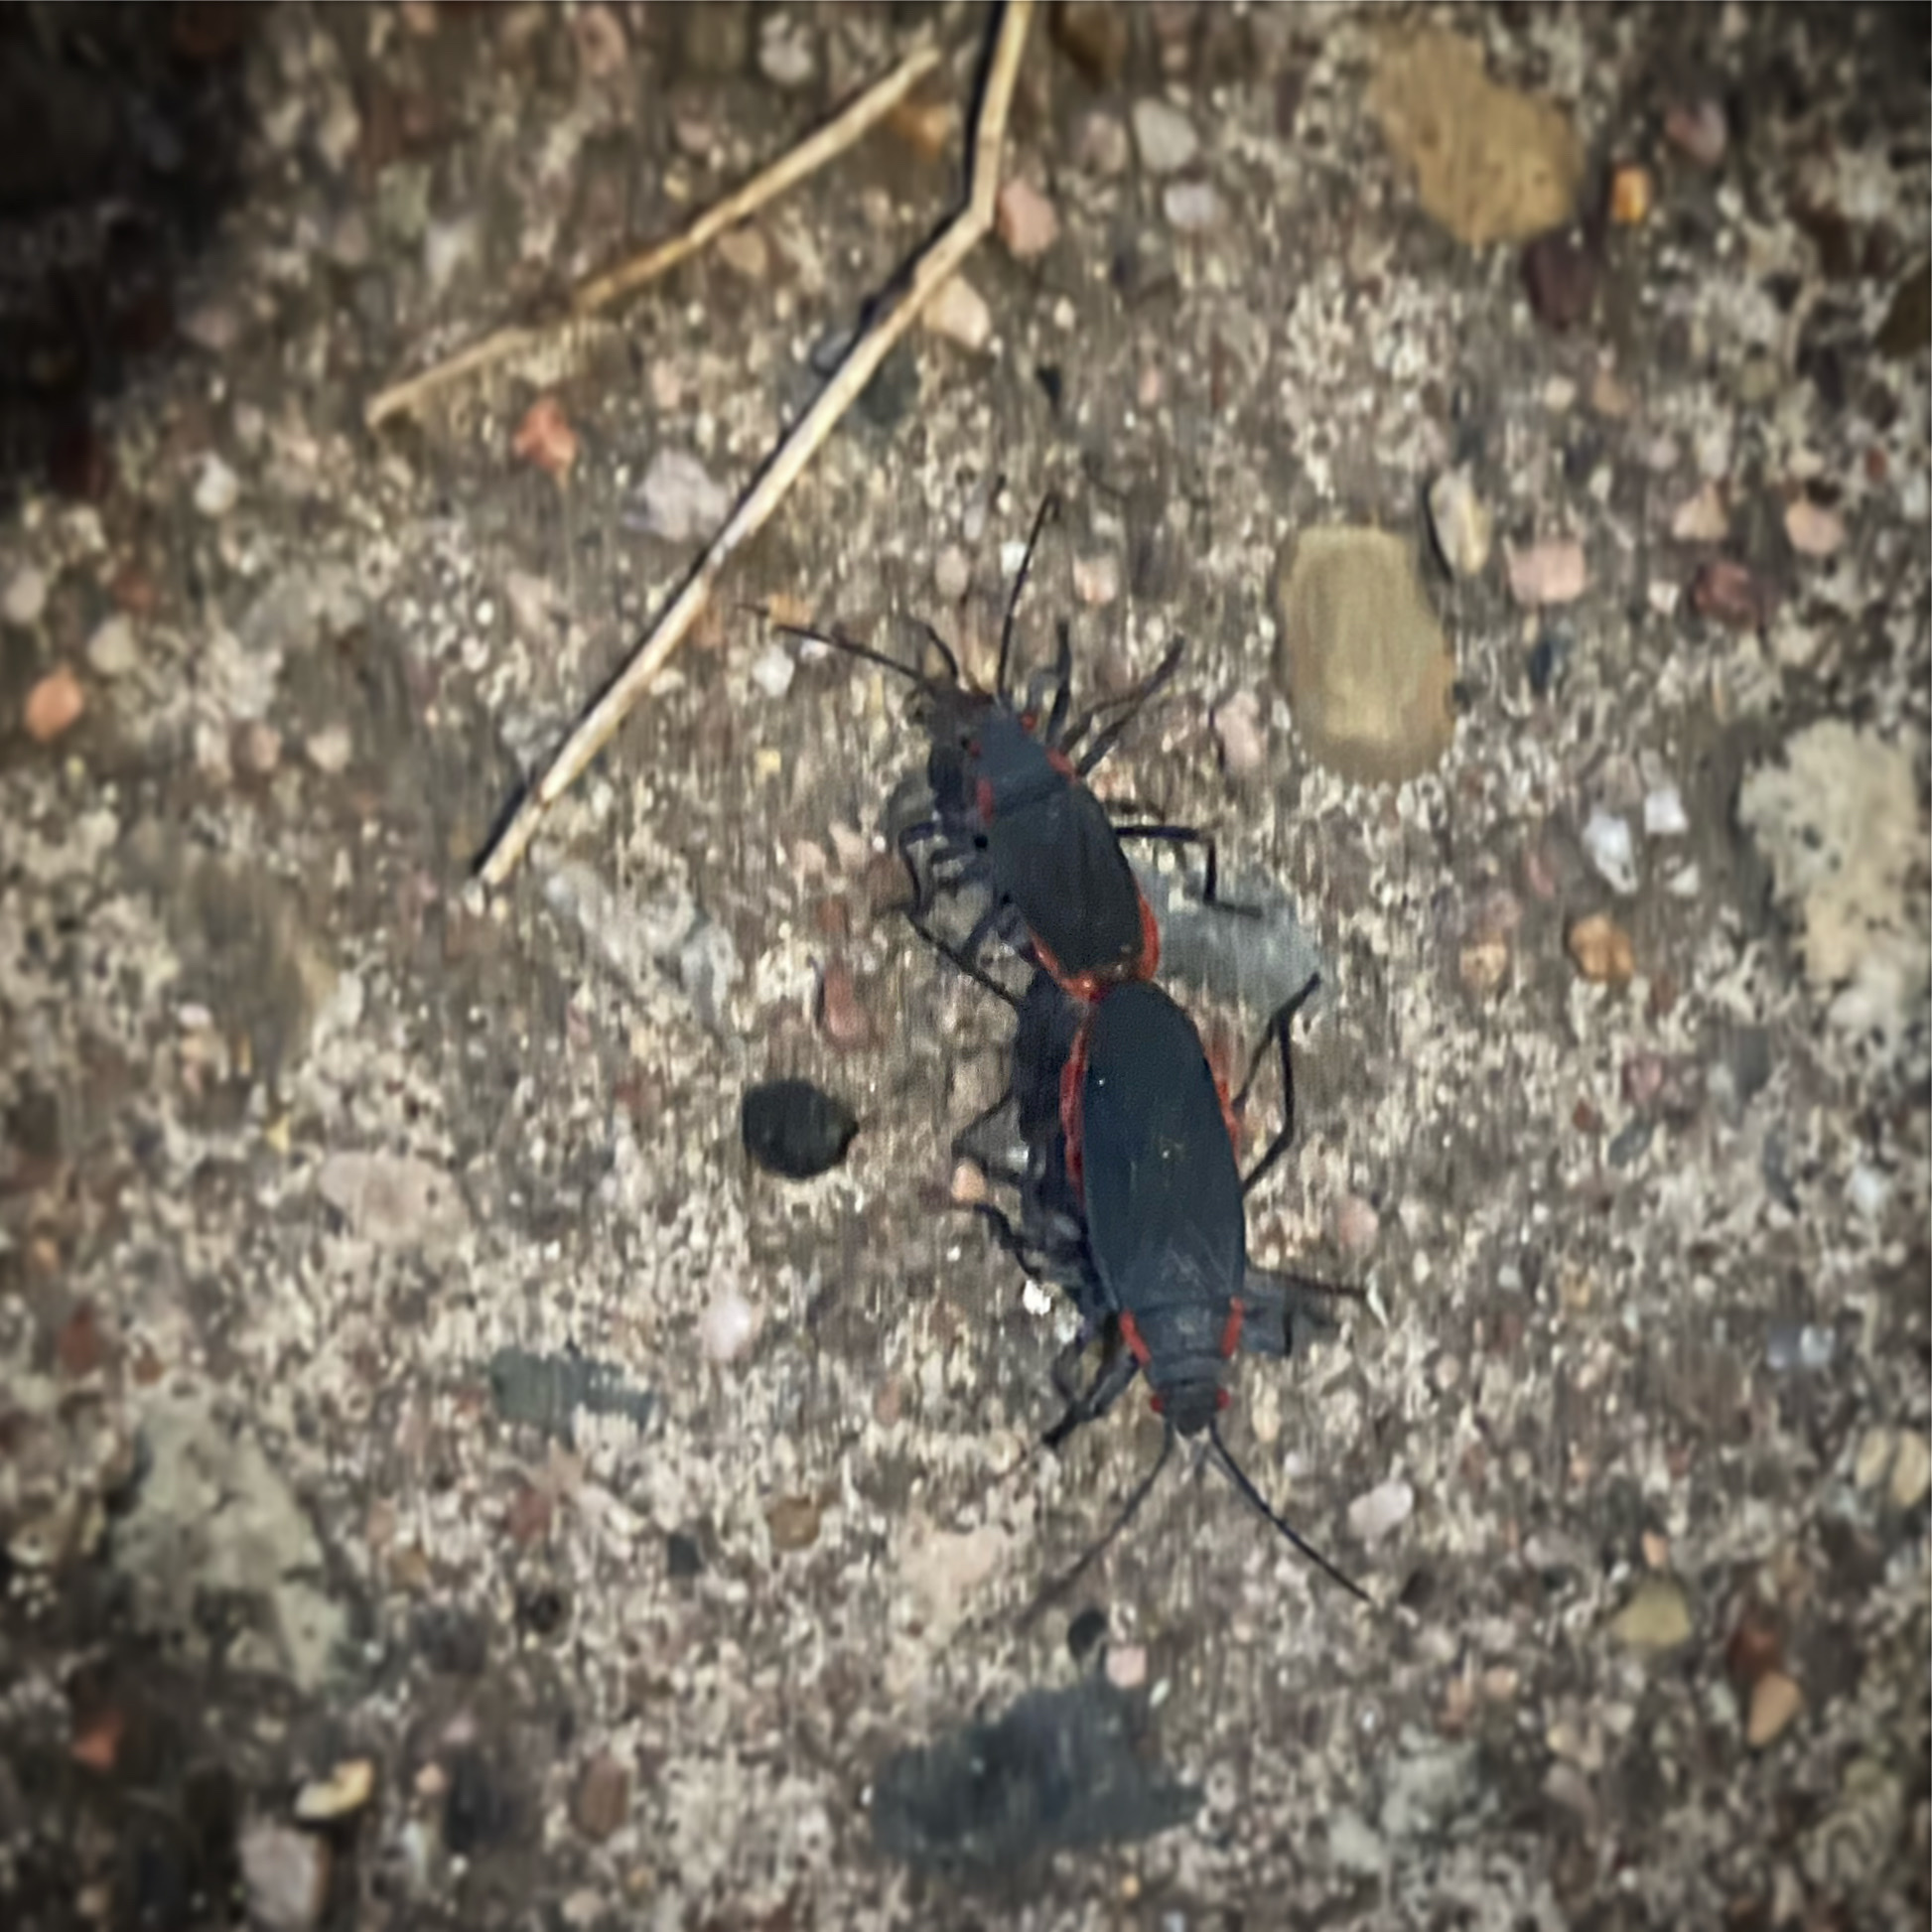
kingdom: Animalia
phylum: Arthropoda
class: Insecta
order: Hemiptera
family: Rhopalidae
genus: Jadera
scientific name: Jadera haematoloma
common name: Red-shouldered bug
